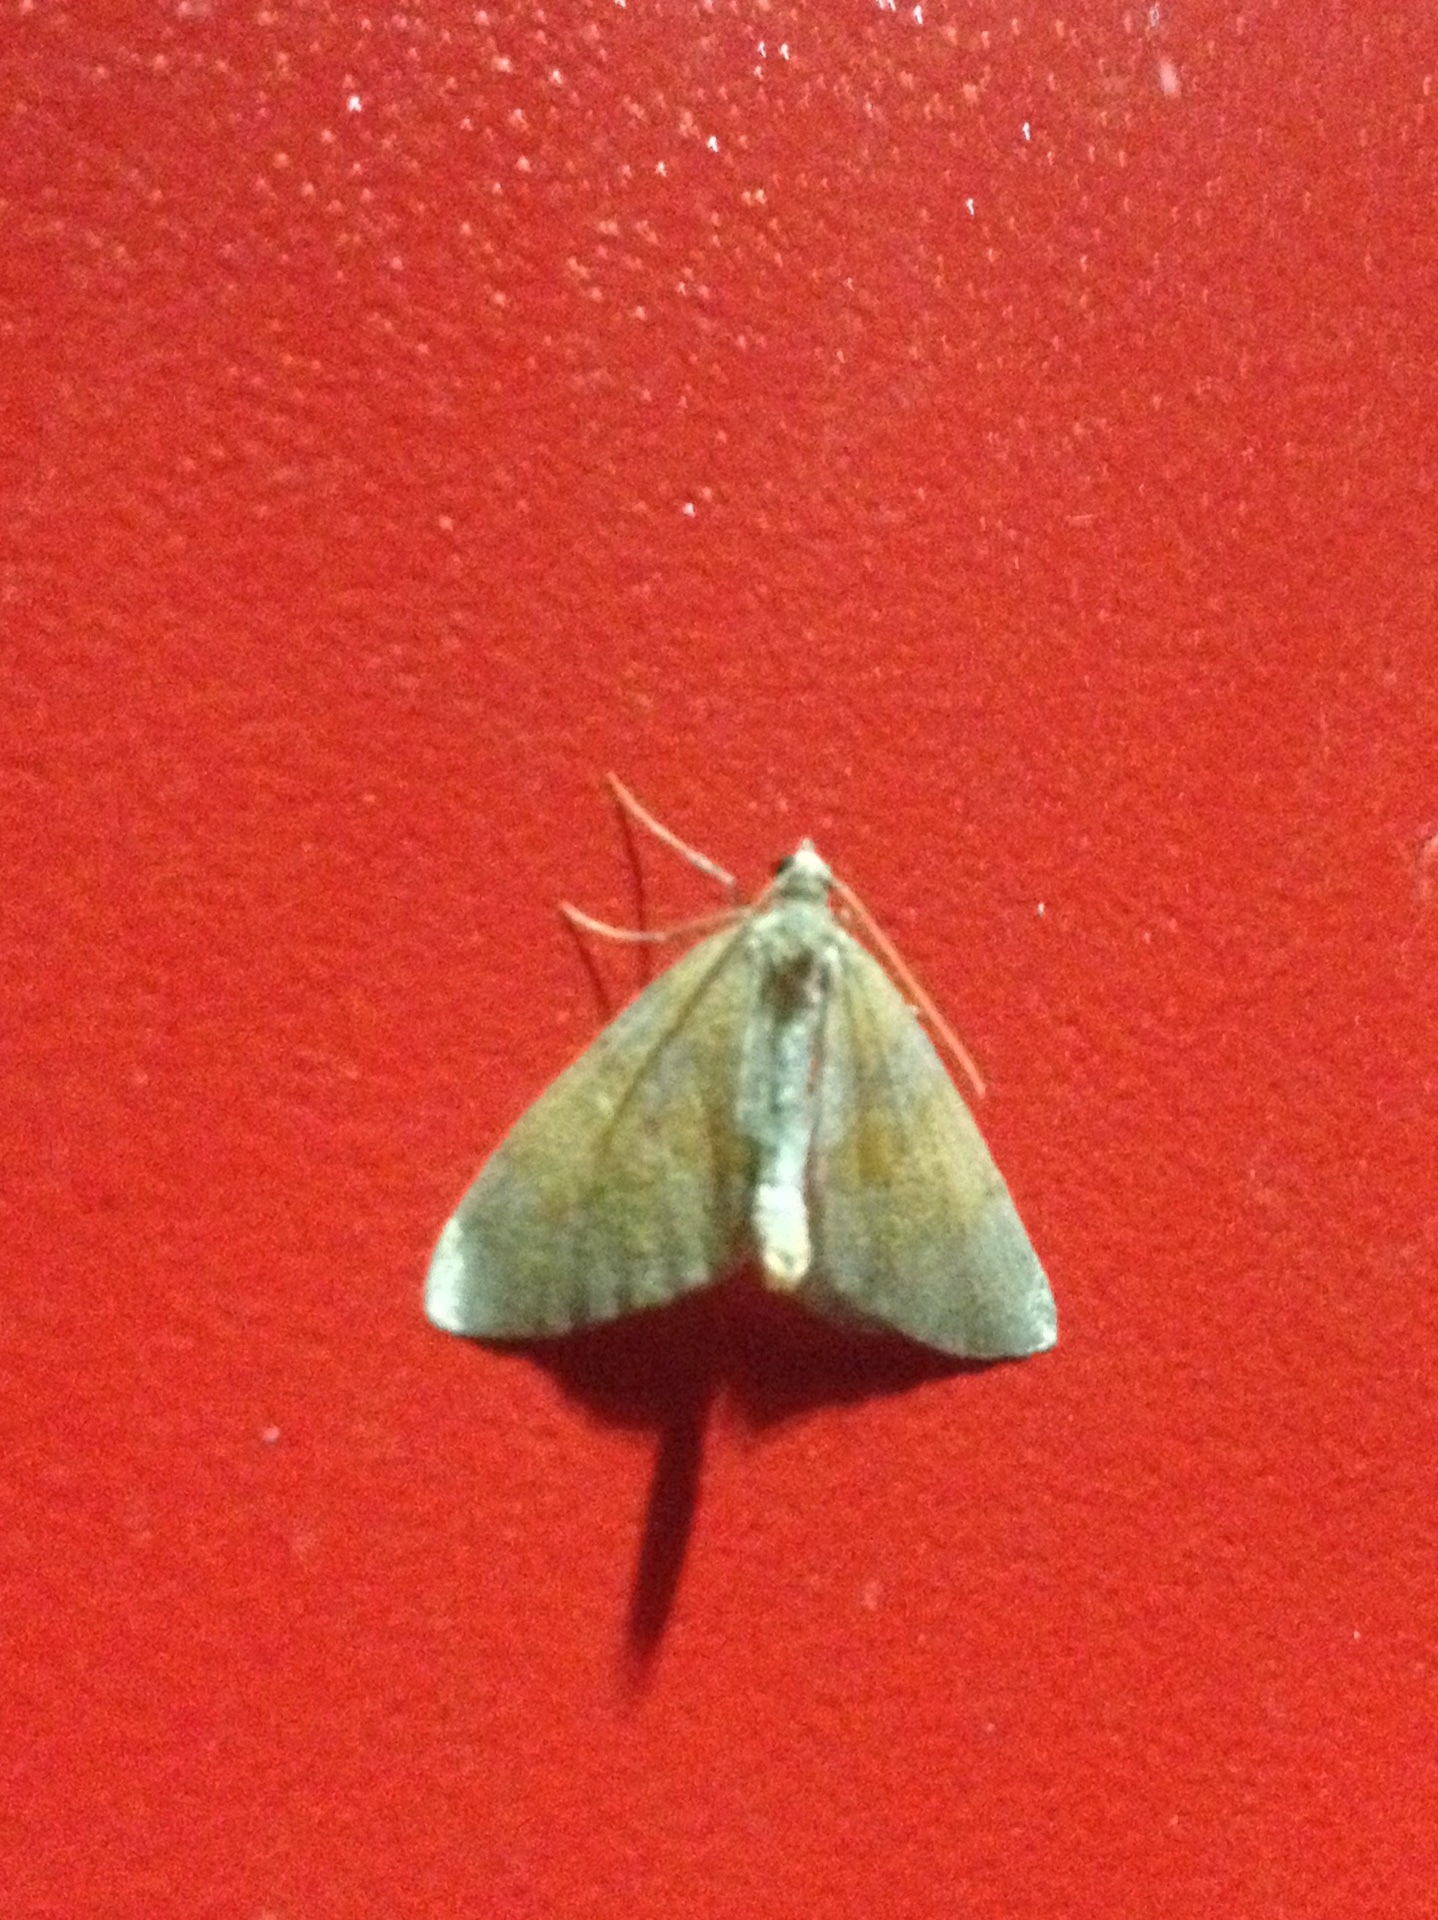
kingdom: Animalia
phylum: Arthropoda
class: Insecta
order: Lepidoptera
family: Geometridae
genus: Thera
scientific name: Thera obeliscata
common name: Grey pine carpet
